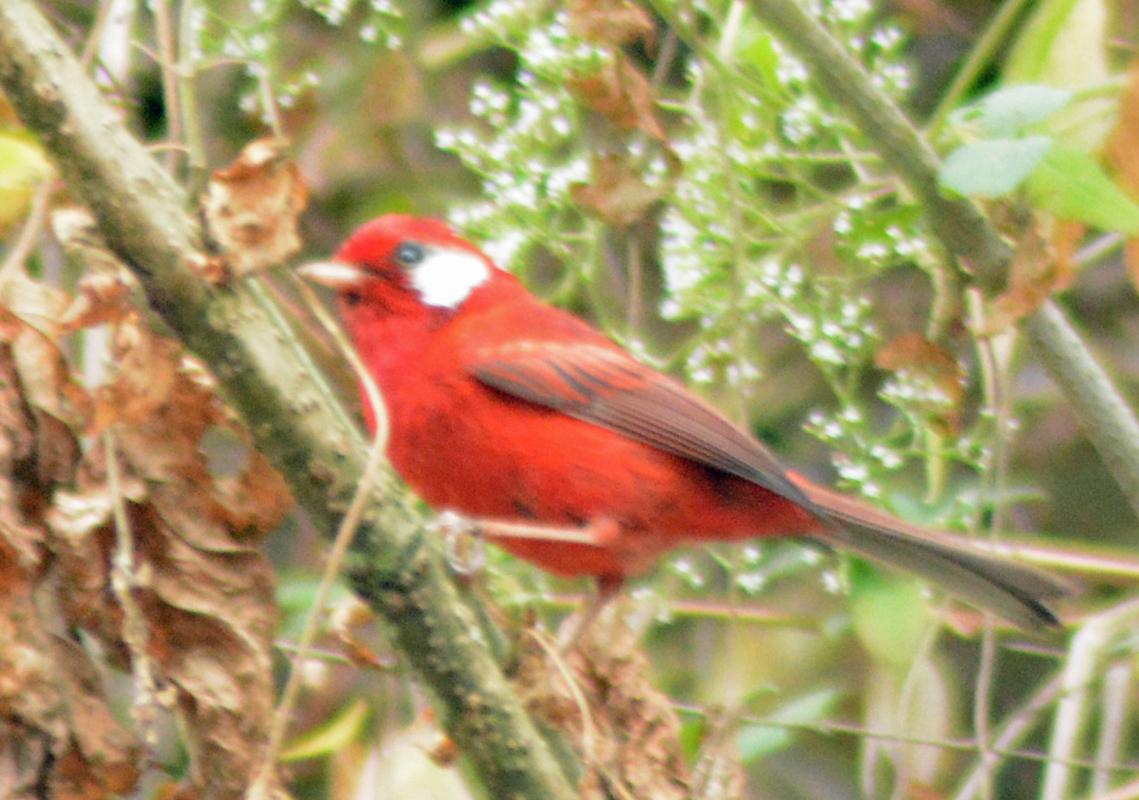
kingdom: Animalia
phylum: Chordata
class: Aves
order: Passeriformes
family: Parulidae
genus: Cardellina
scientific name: Cardellina rubra
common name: Red warbler
